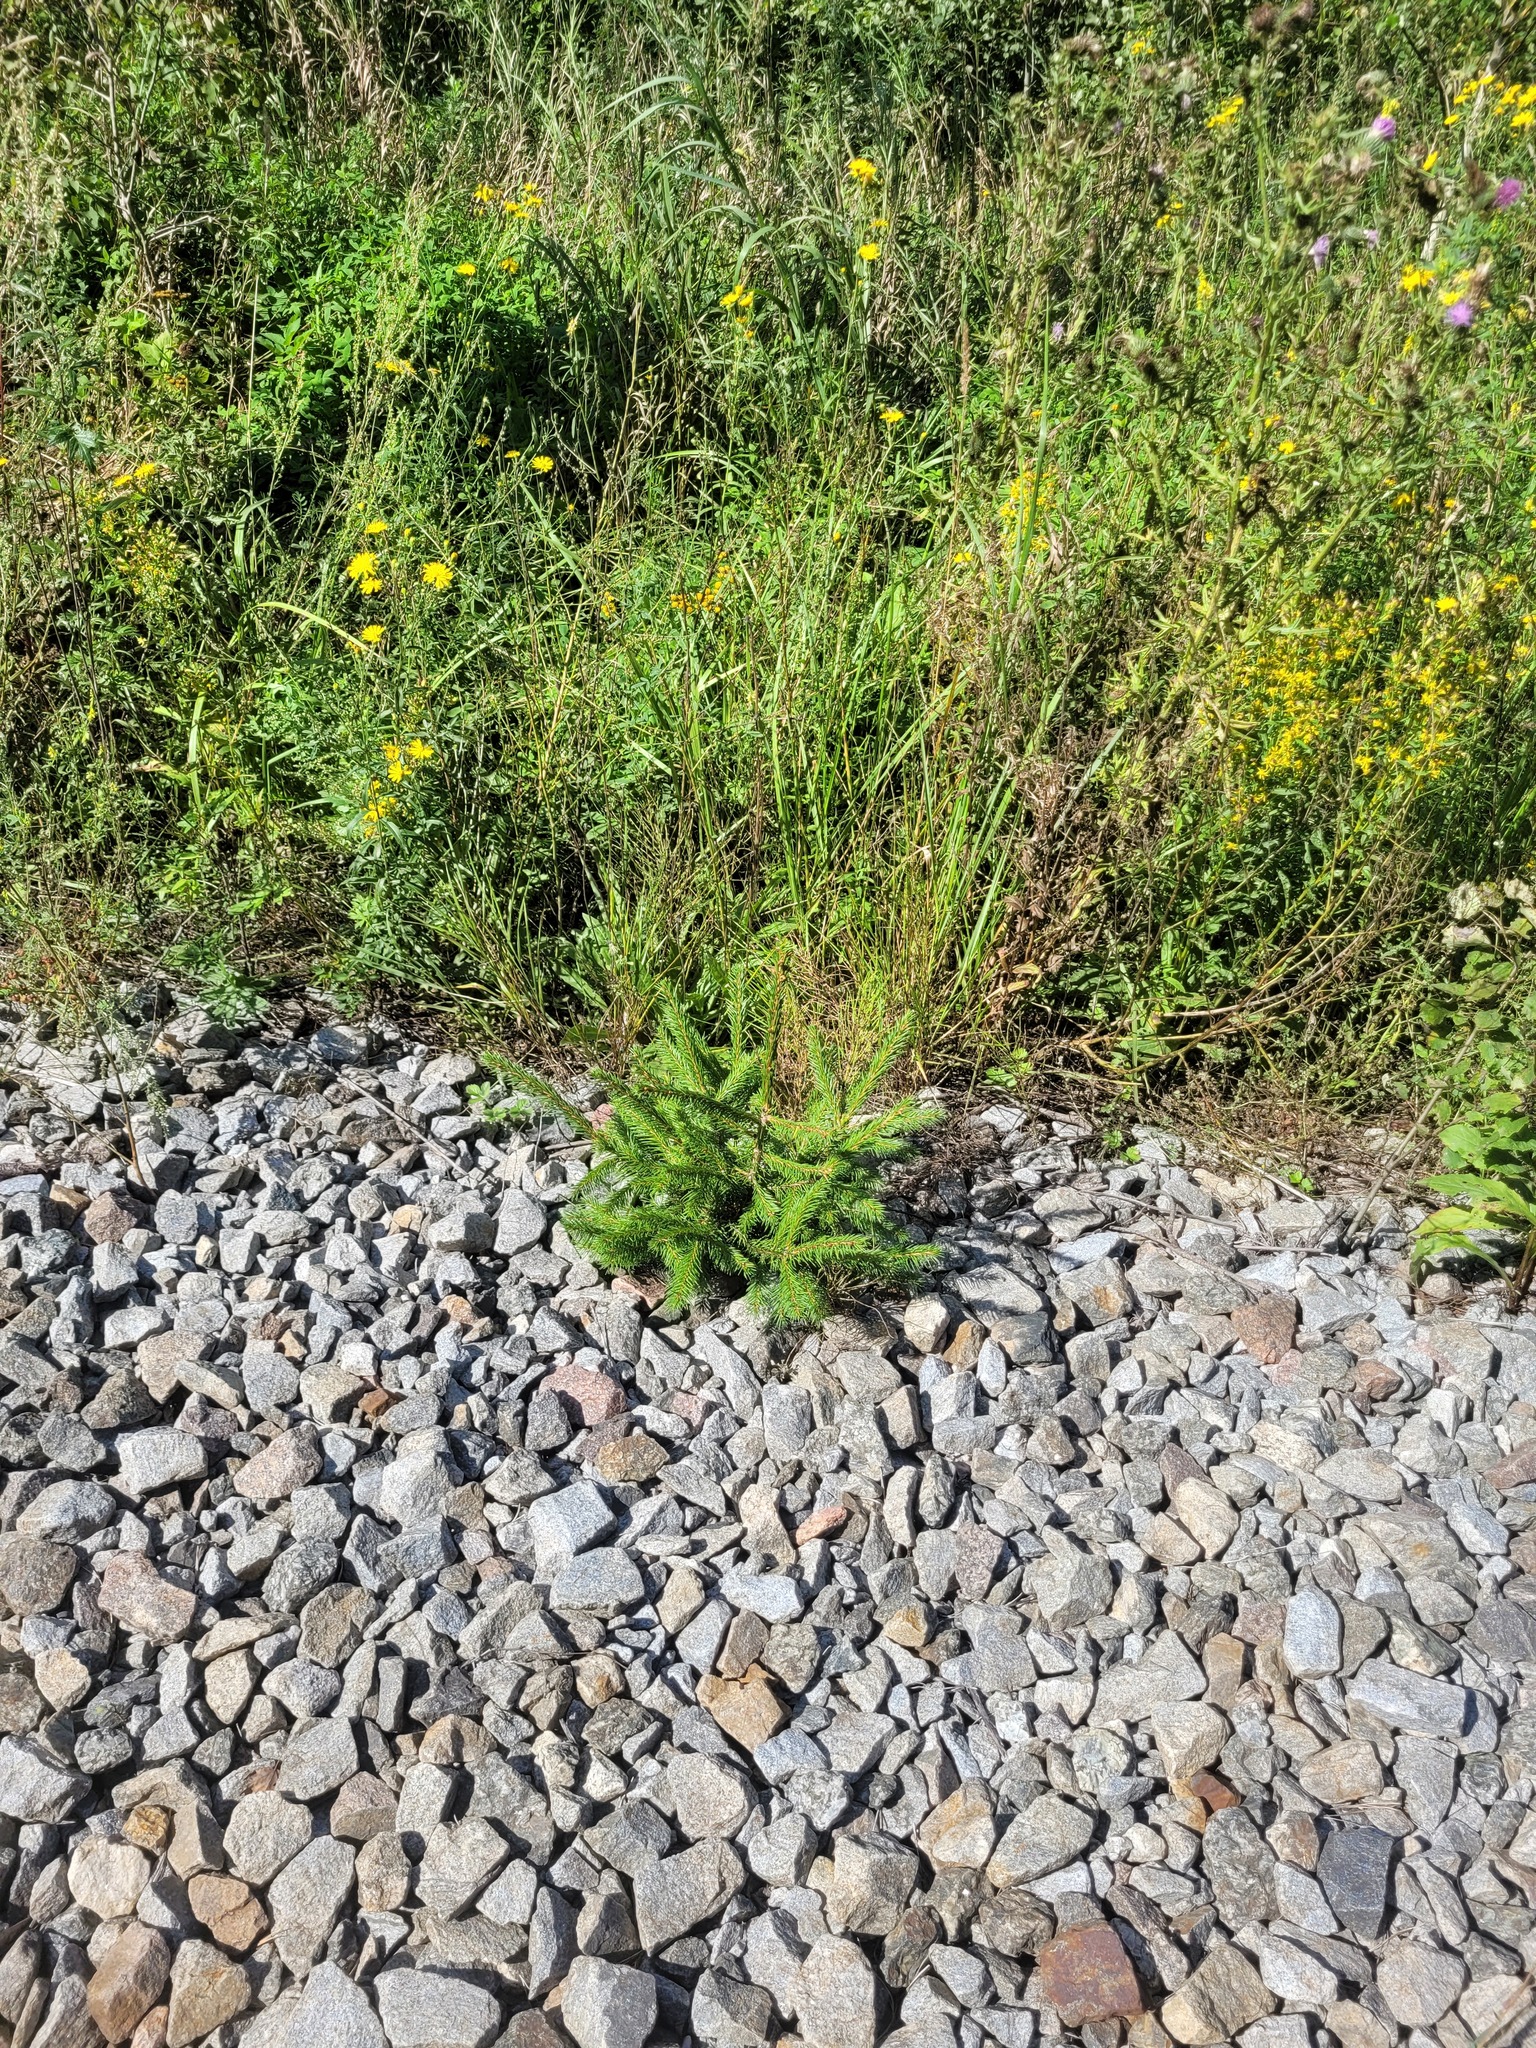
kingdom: Plantae
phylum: Tracheophyta
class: Pinopsida
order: Pinales
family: Pinaceae
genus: Picea
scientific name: Picea abies
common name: Norway spruce
